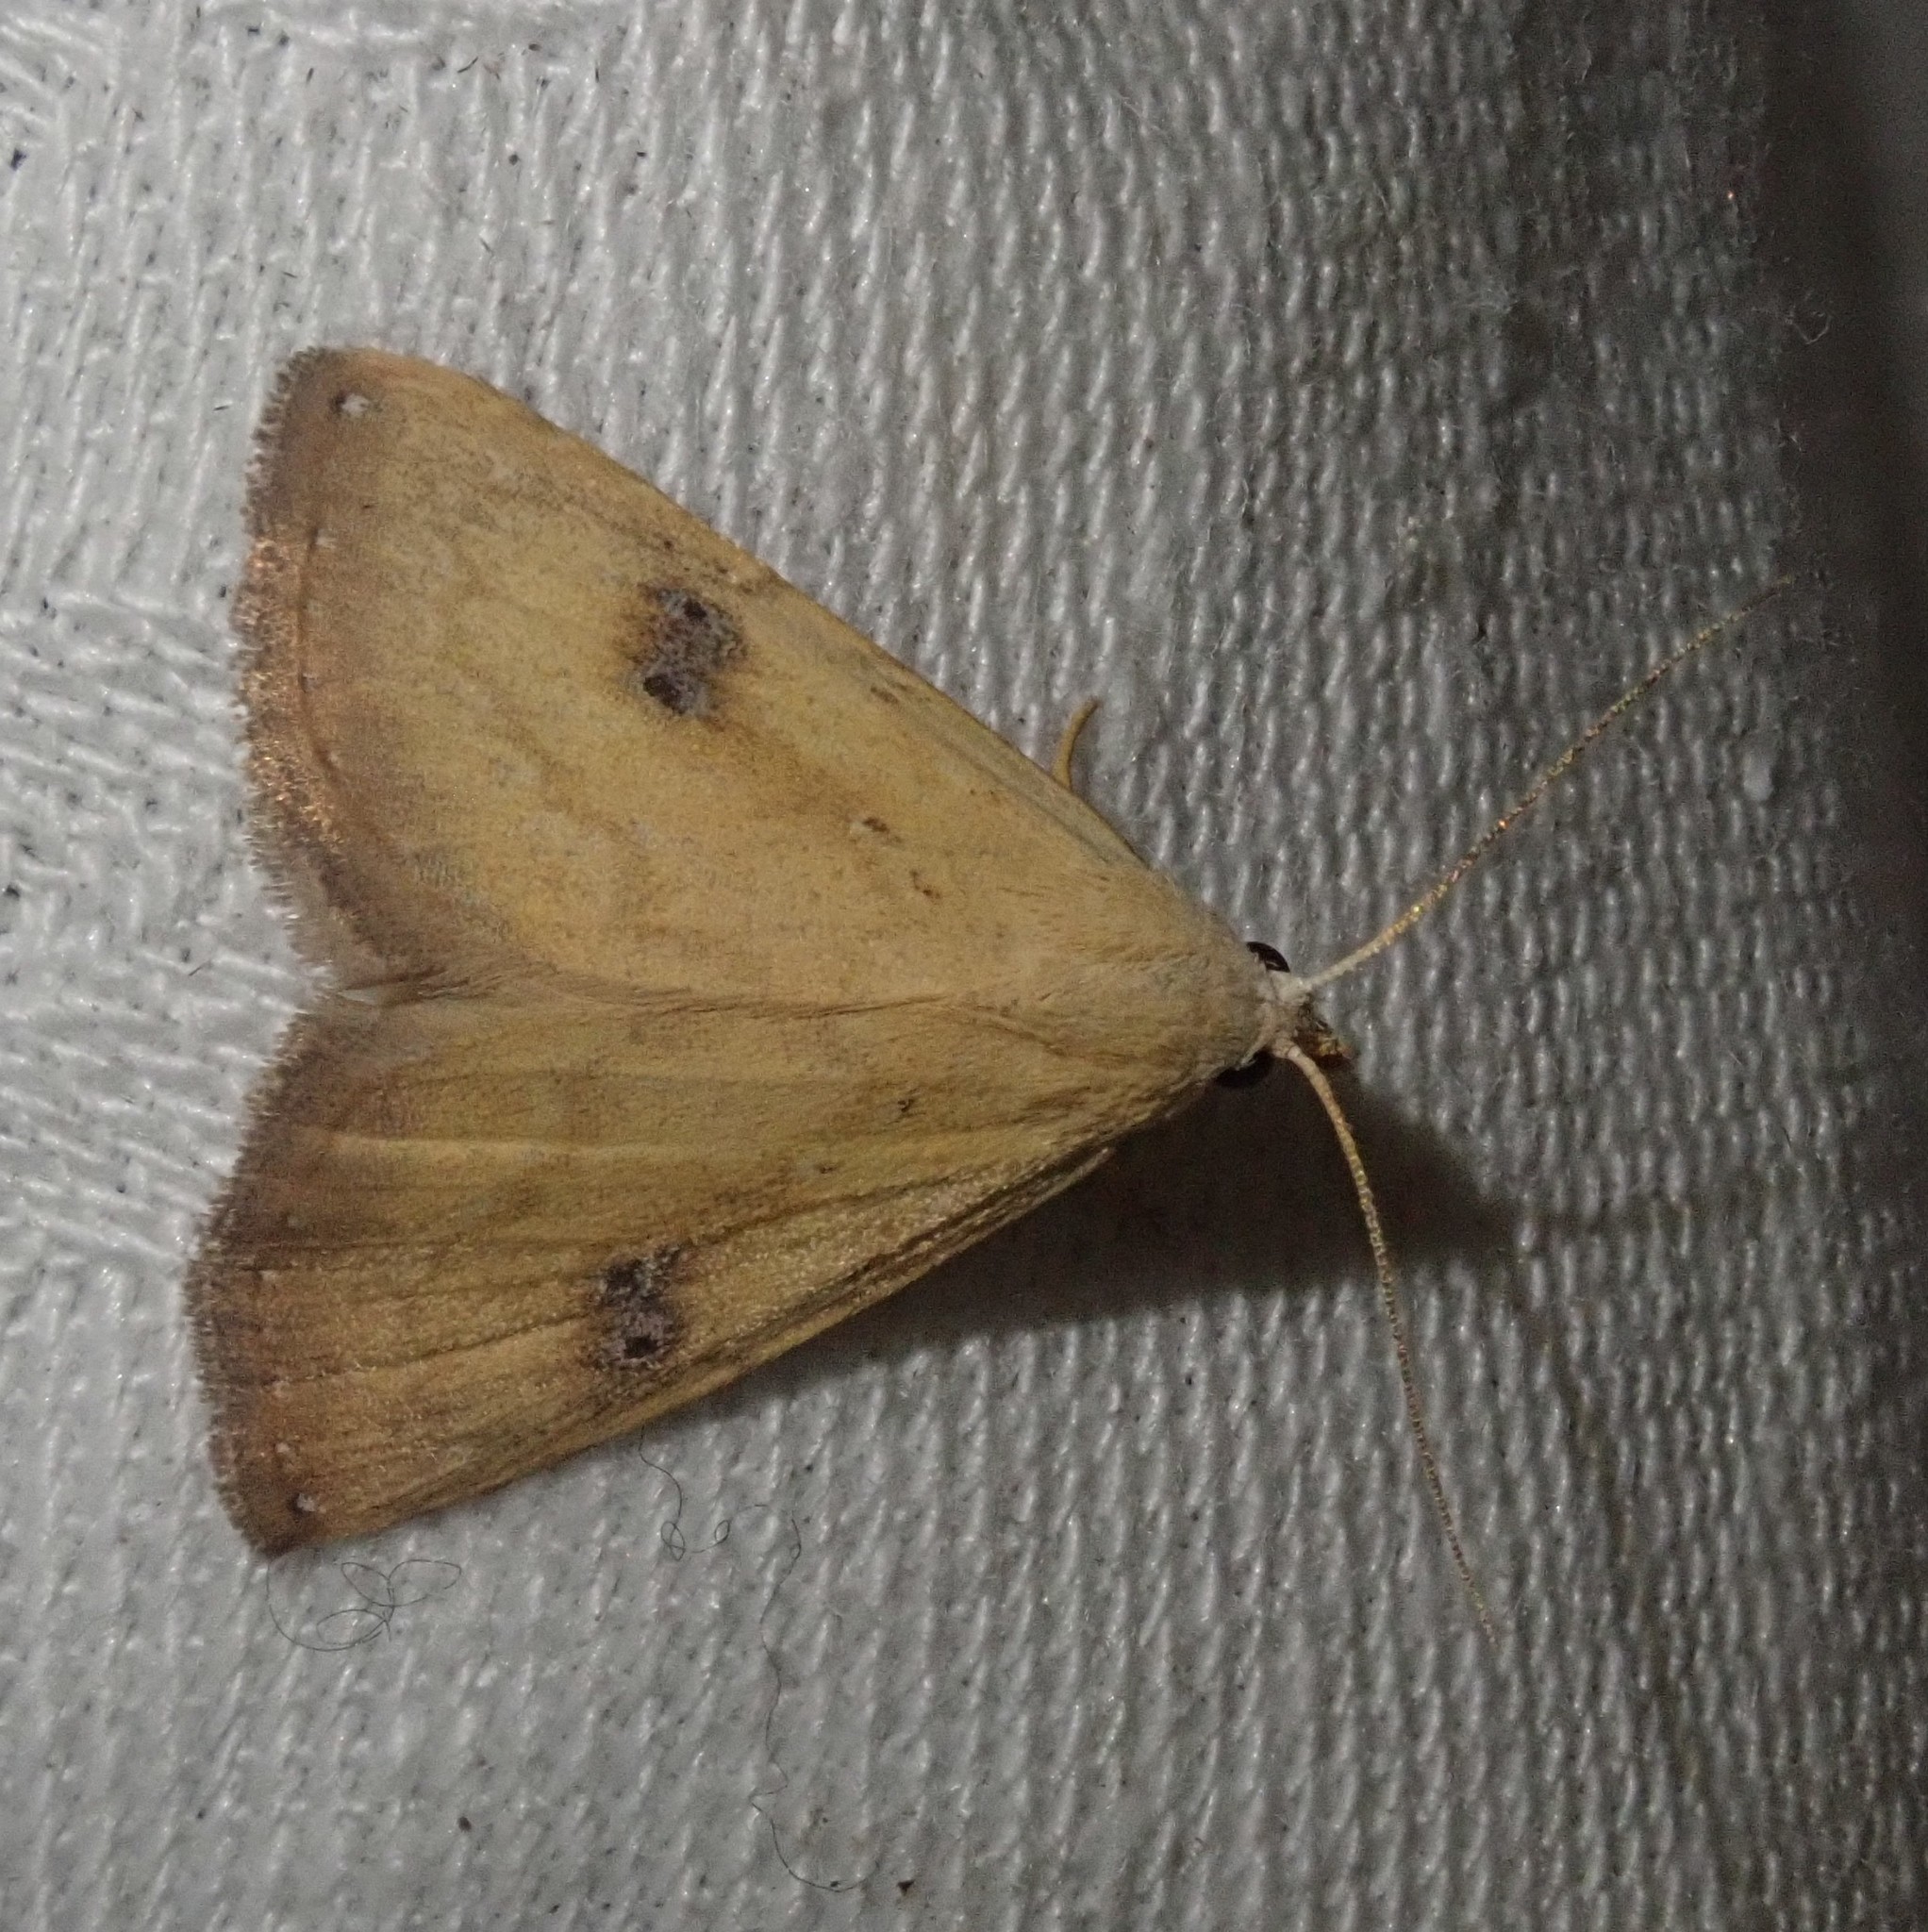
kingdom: Animalia
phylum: Arthropoda
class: Insecta
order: Lepidoptera
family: Erebidae
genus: Rivula
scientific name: Rivula sericealis
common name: Straw dot
